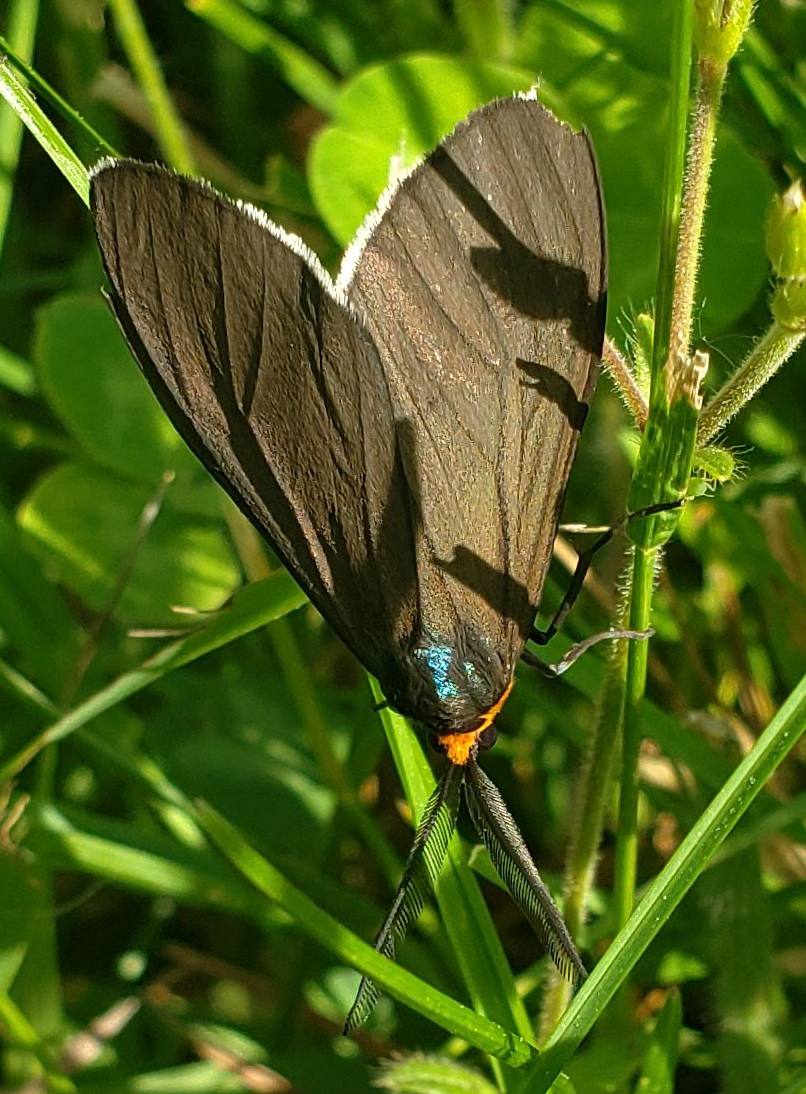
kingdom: Animalia
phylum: Arthropoda
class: Insecta
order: Lepidoptera
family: Erebidae
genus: Ctenucha
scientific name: Ctenucha virginica
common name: Virginia ctenucha moth
